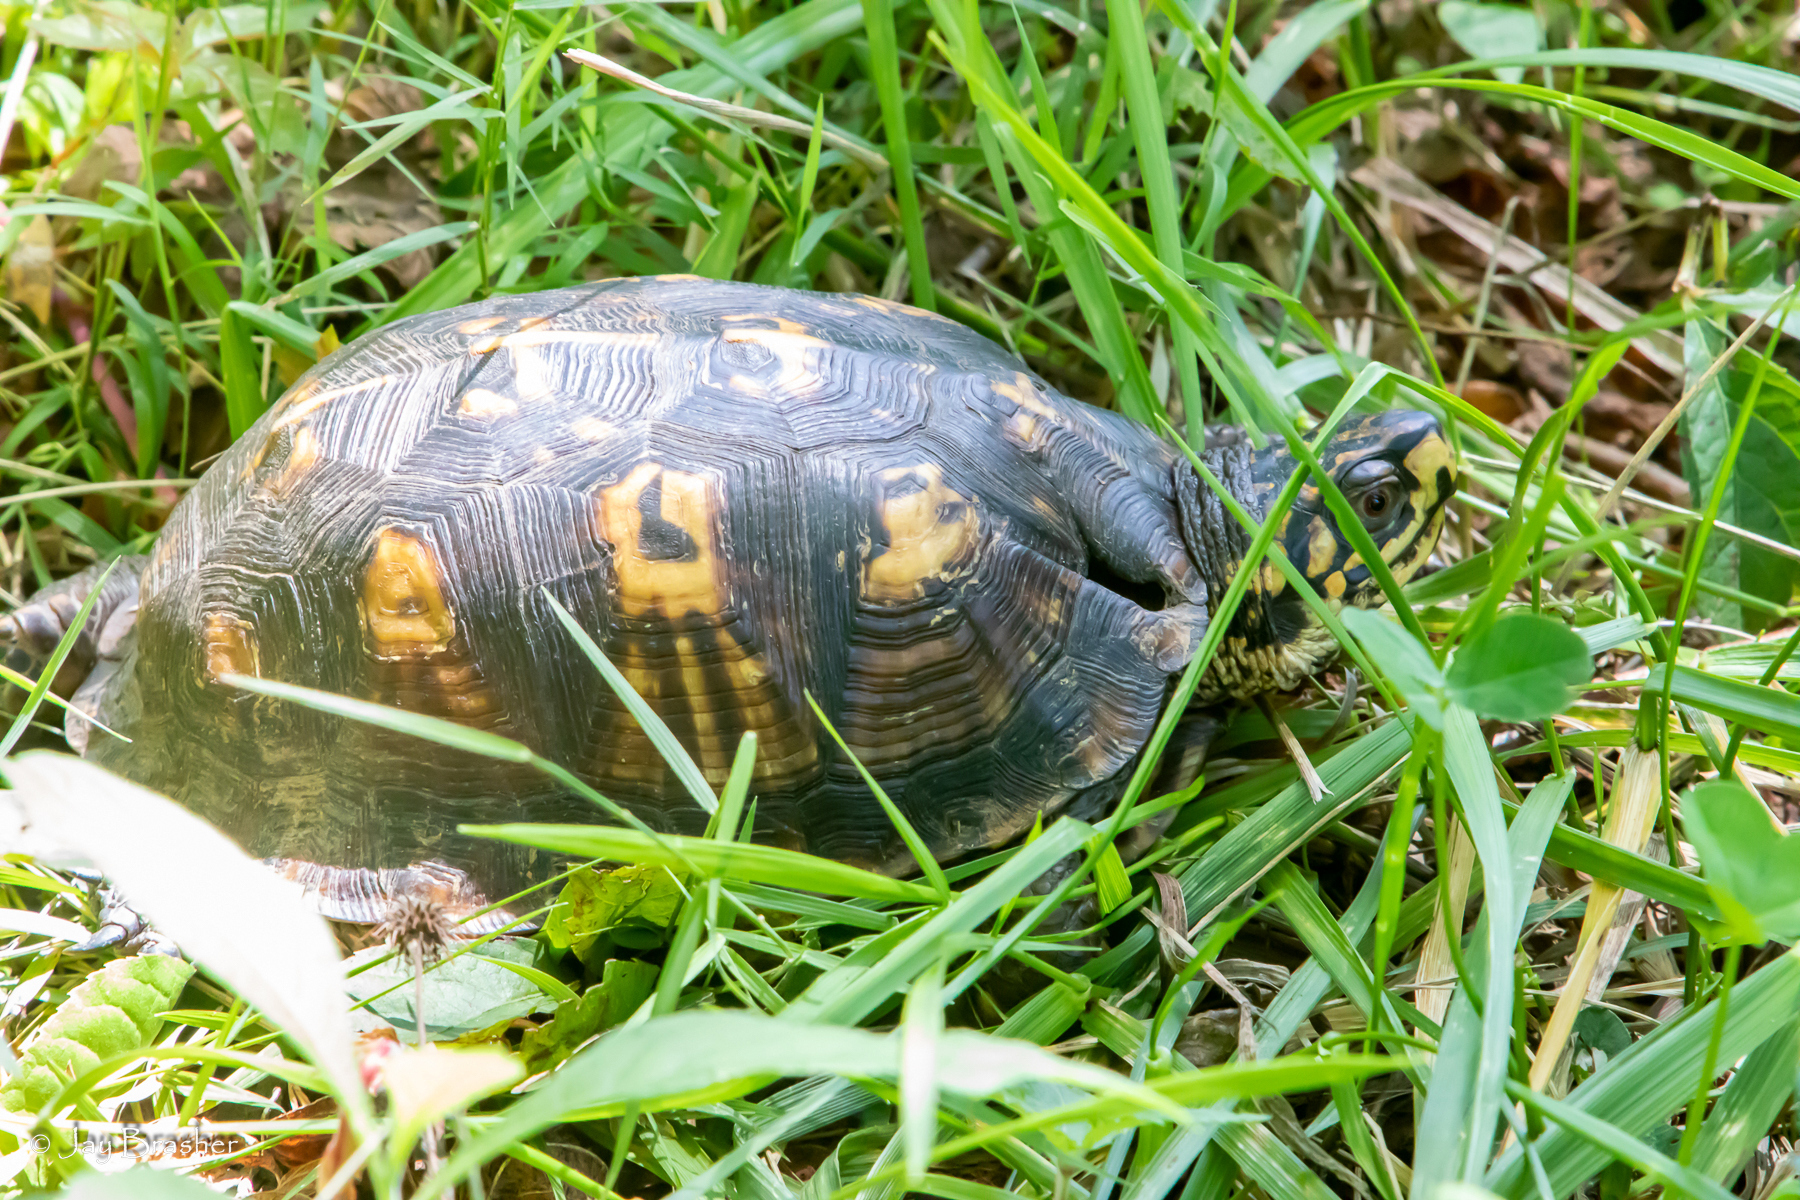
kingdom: Animalia
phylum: Chordata
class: Testudines
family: Emydidae
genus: Terrapene
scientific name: Terrapene carolina
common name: Common box turtle
